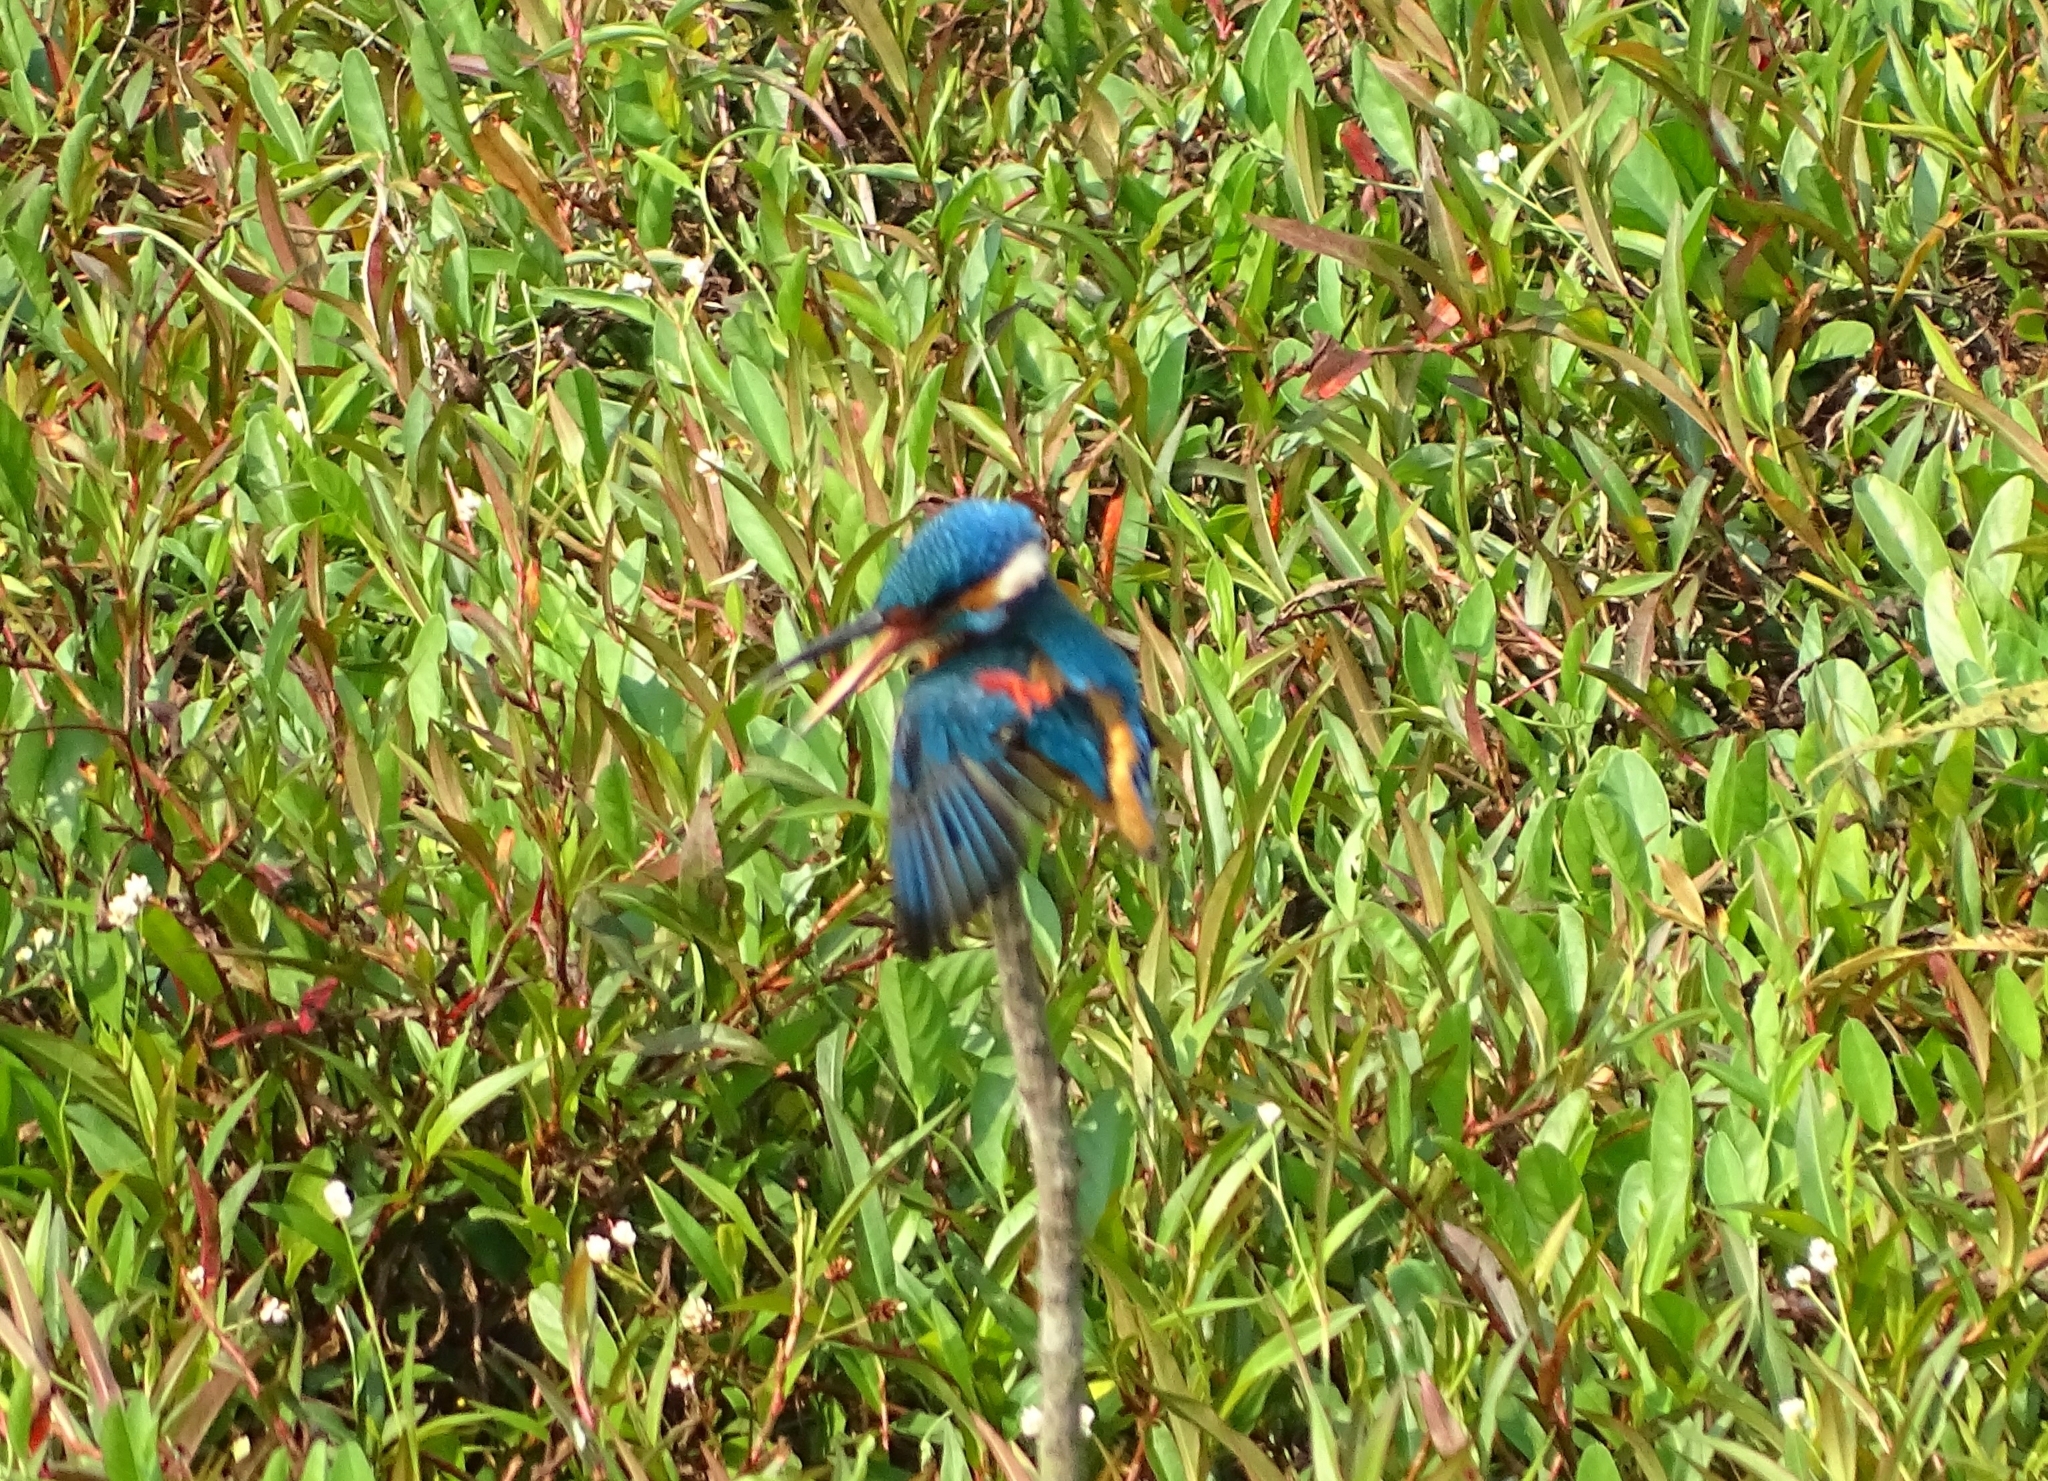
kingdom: Animalia
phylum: Chordata
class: Aves
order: Coraciiformes
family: Alcedinidae
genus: Alcedo
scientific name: Alcedo atthis
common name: Common kingfisher
